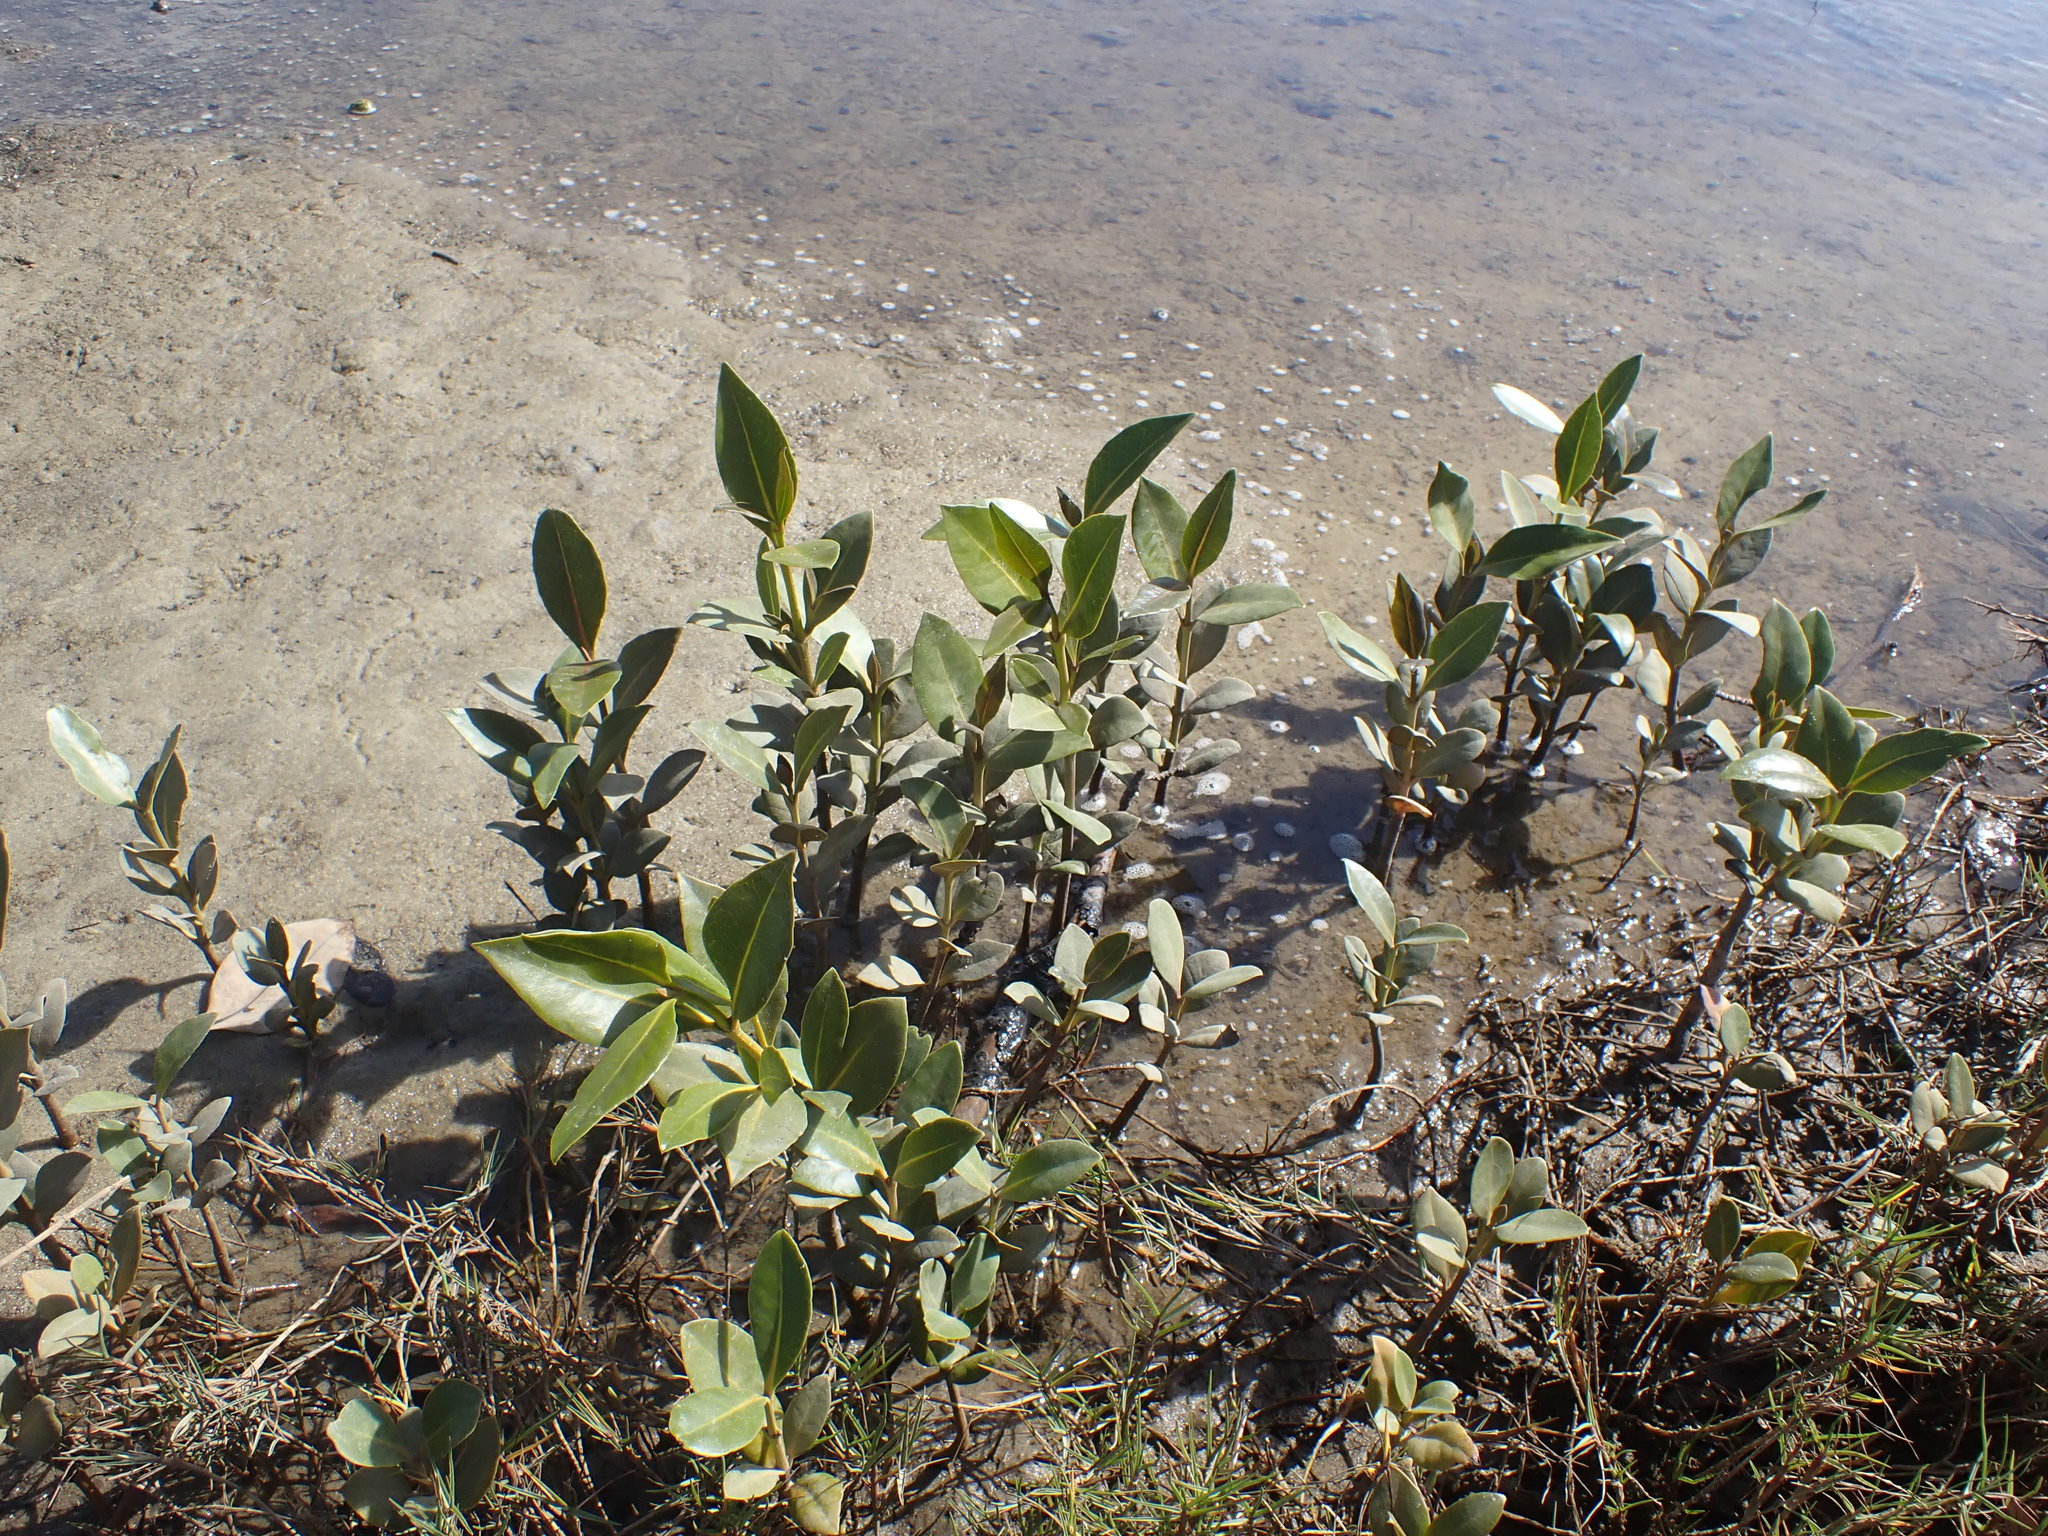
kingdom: Plantae
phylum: Tracheophyta
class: Magnoliopsida
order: Lamiales
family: Acanthaceae
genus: Avicennia
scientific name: Avicennia marina
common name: Gray mangrove
